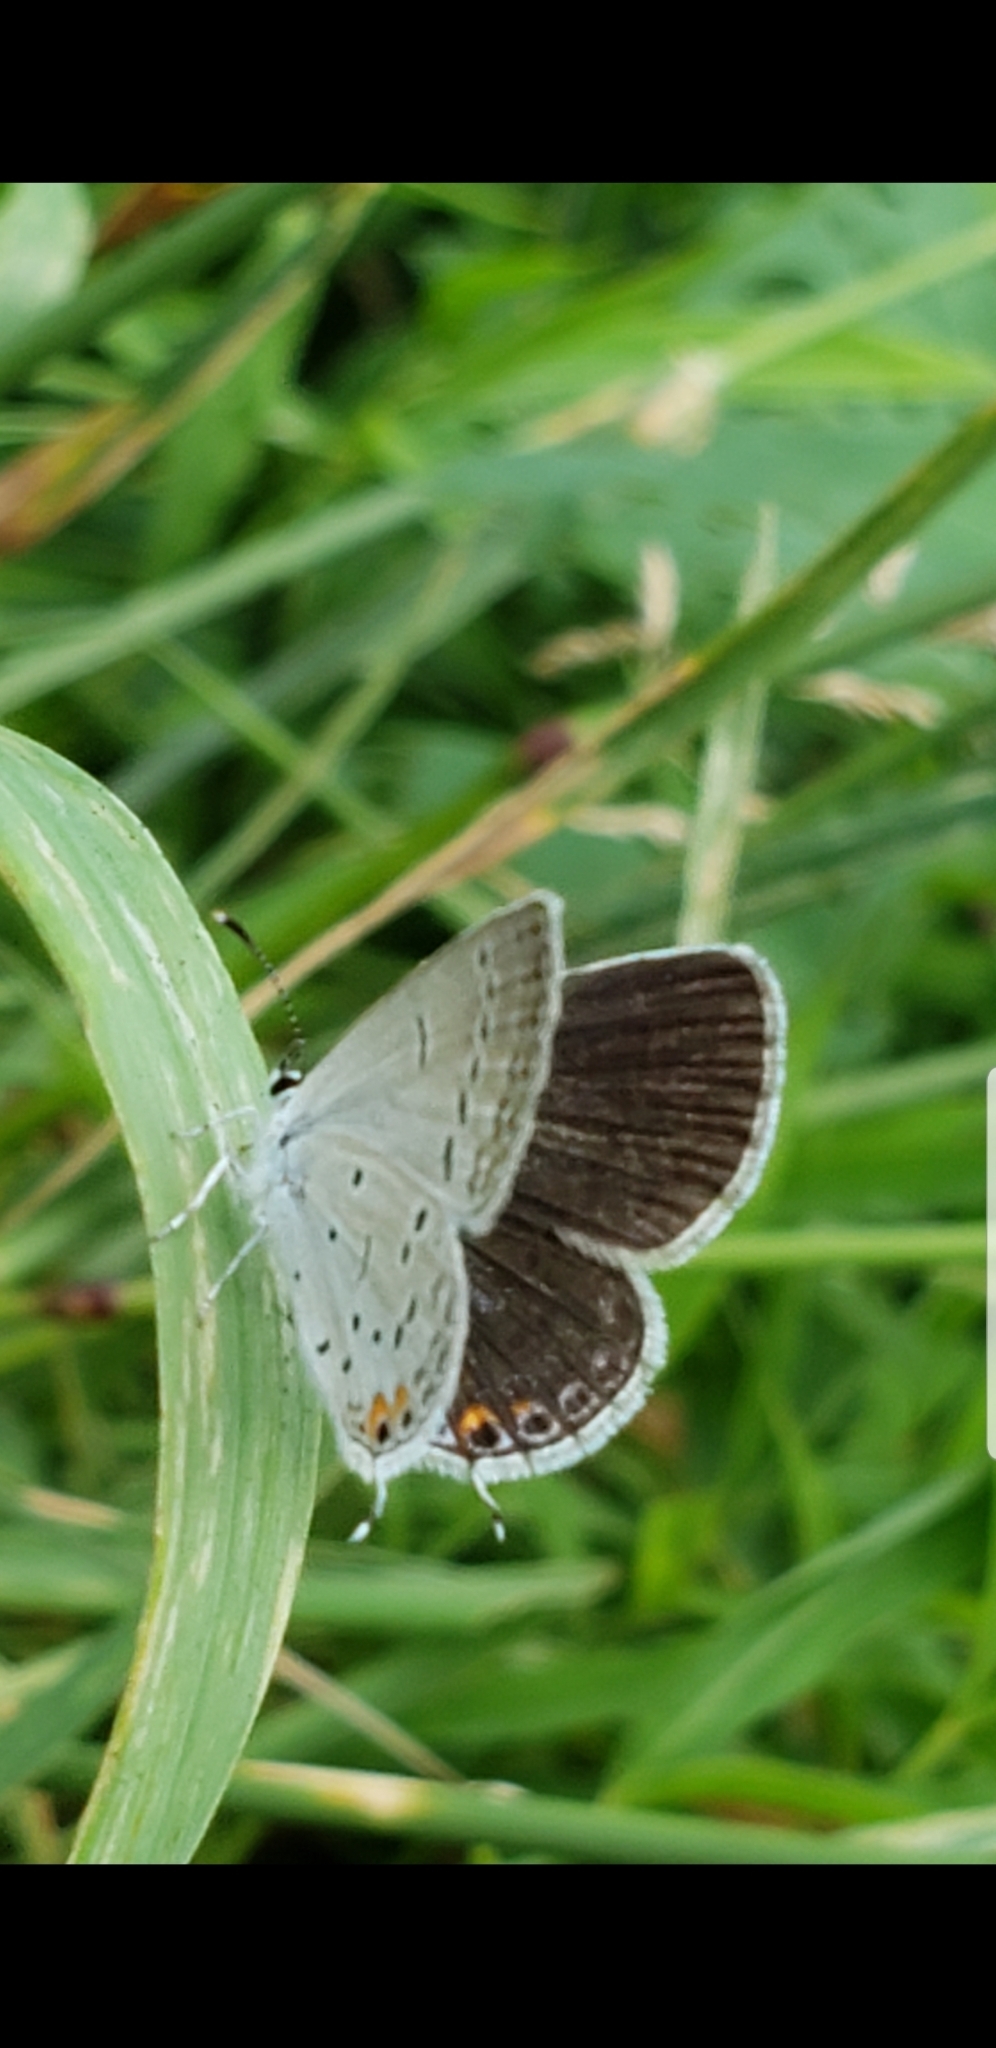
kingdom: Animalia
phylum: Arthropoda
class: Insecta
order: Lepidoptera
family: Lycaenidae
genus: Elkalyce
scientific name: Elkalyce comyntas
